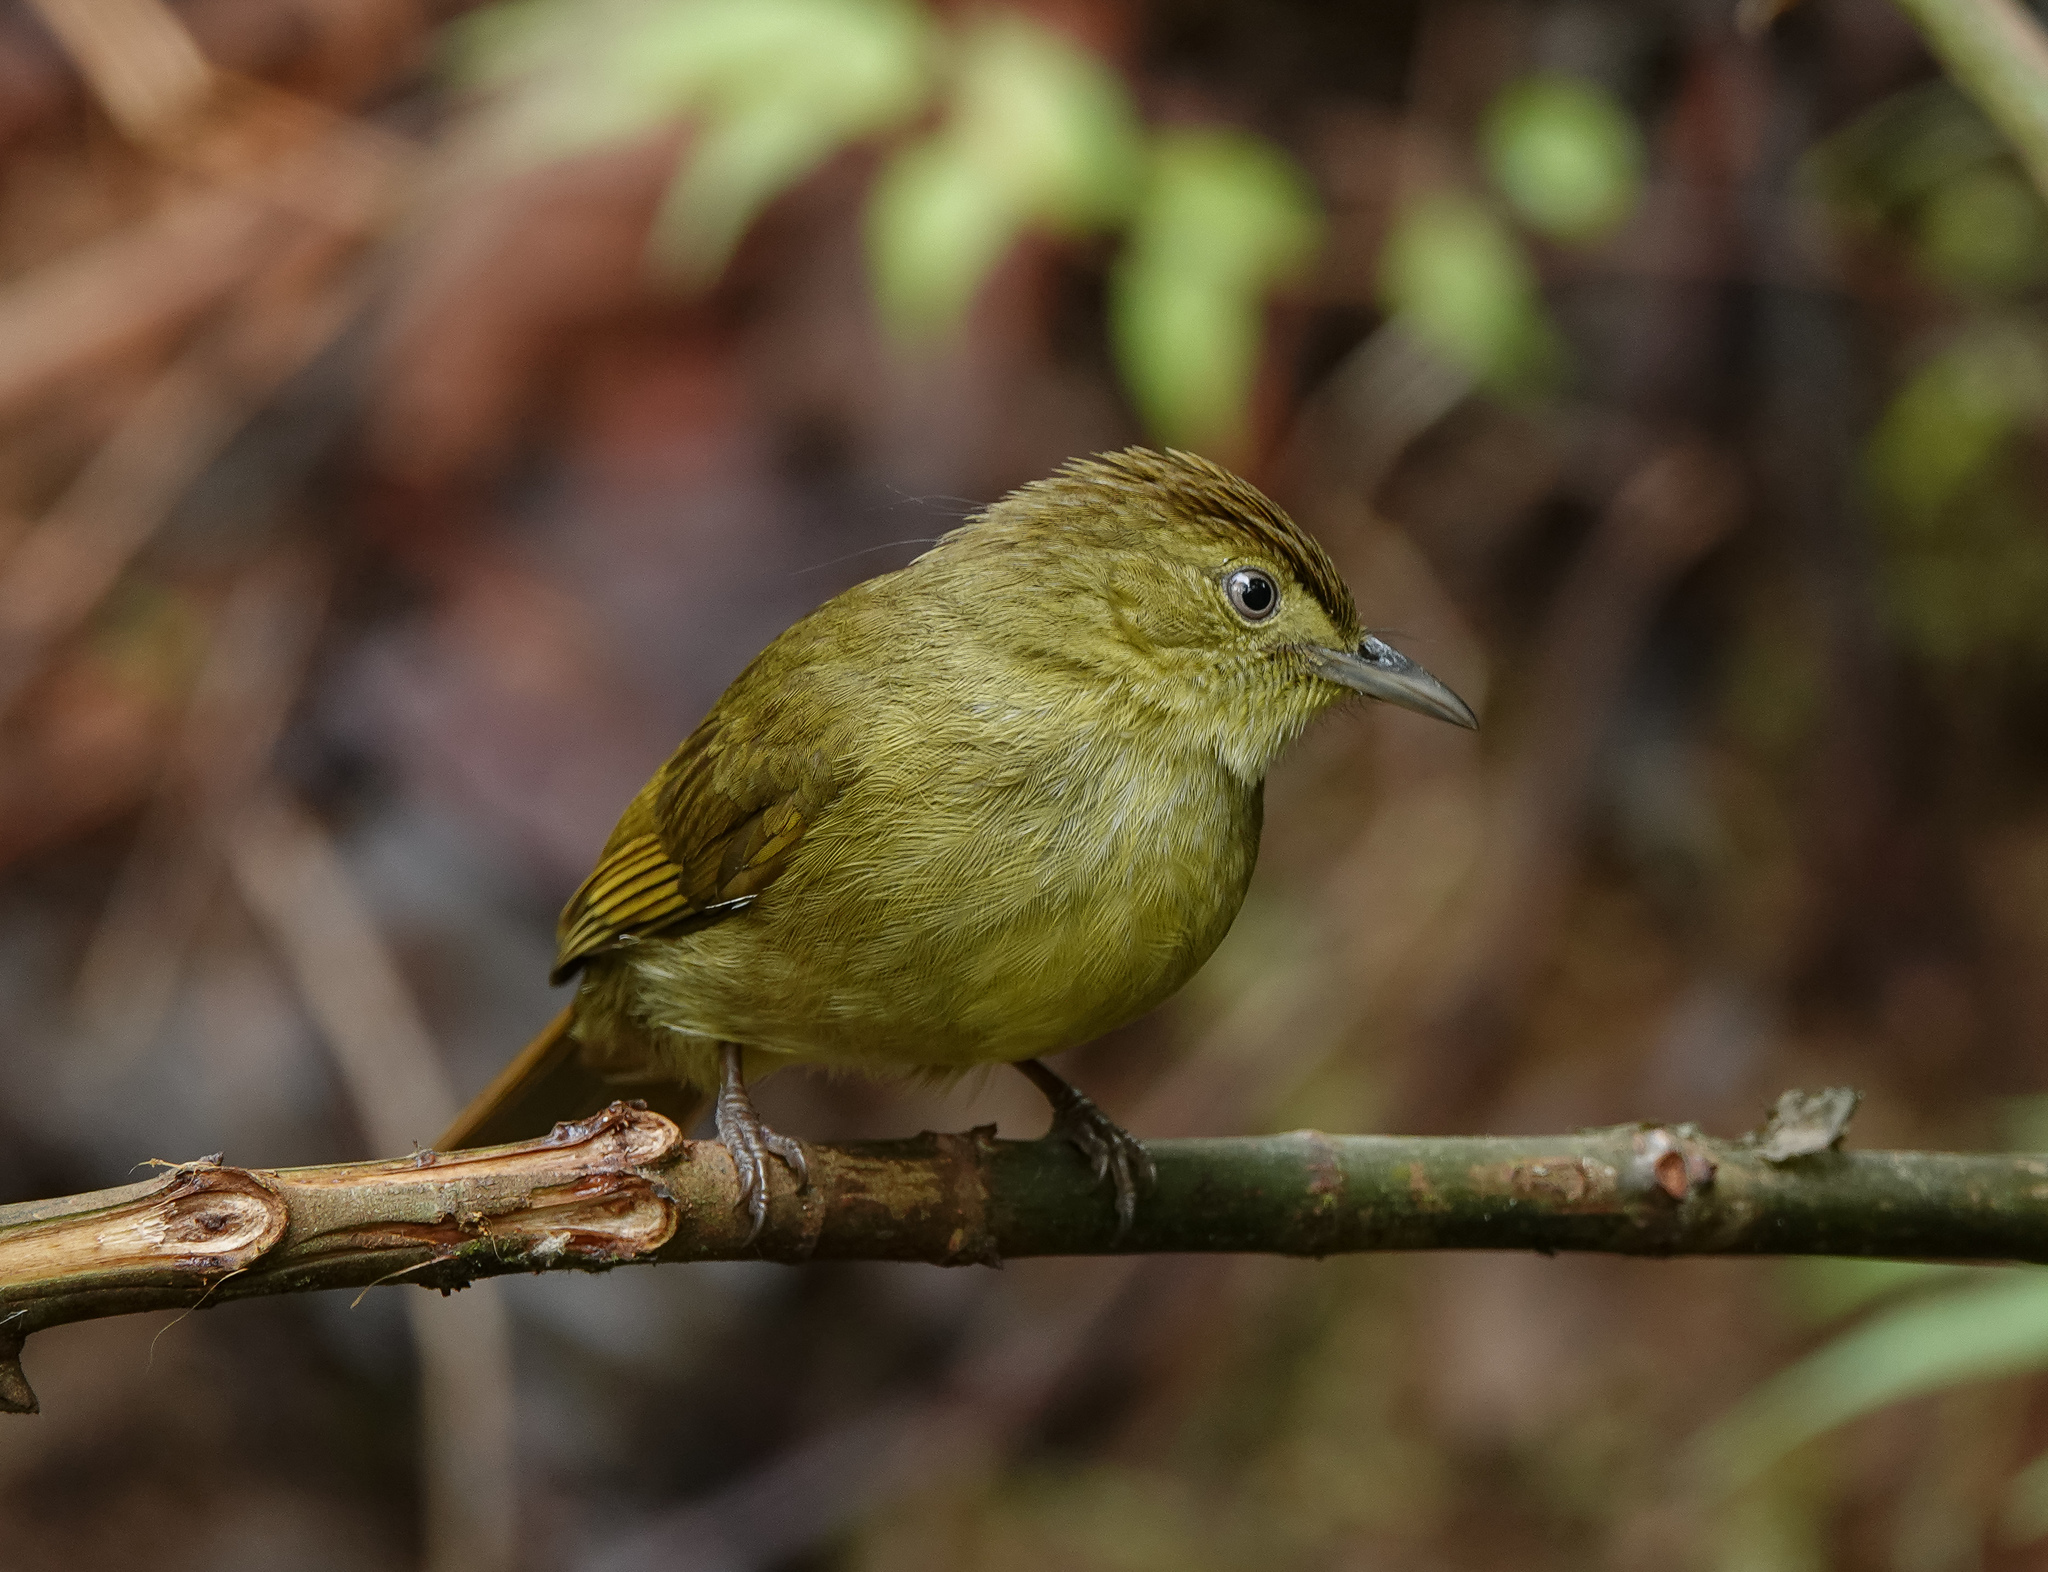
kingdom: Animalia
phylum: Chordata
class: Aves
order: Passeriformes
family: Pycnonotidae
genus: Iole
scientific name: Iole virescens
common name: Olive bulbul
